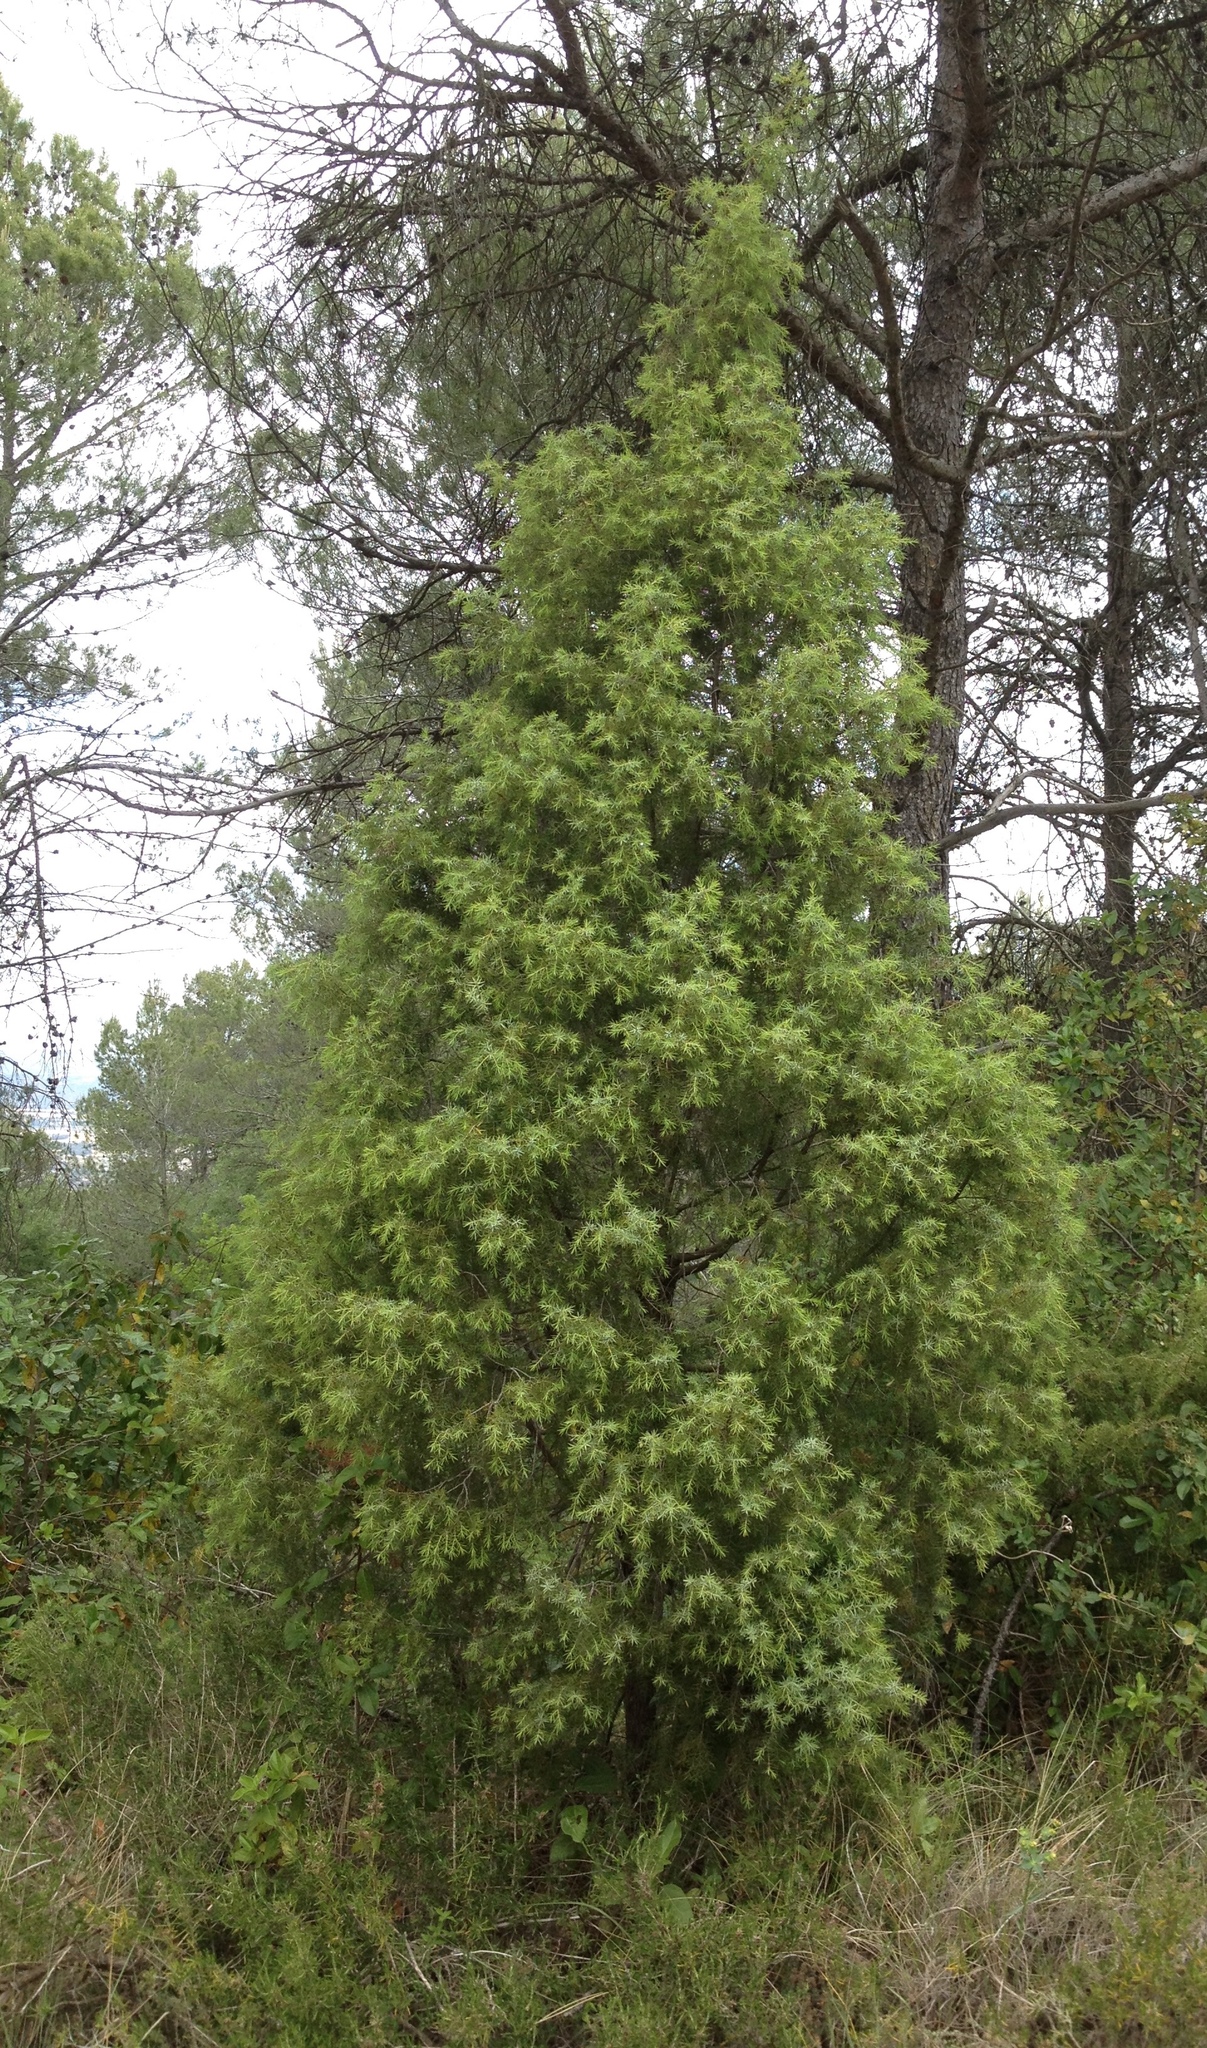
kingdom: Plantae
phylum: Tracheophyta
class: Pinopsida
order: Pinales
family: Cupressaceae
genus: Juniperus
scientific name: Juniperus communis
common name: Common juniper
